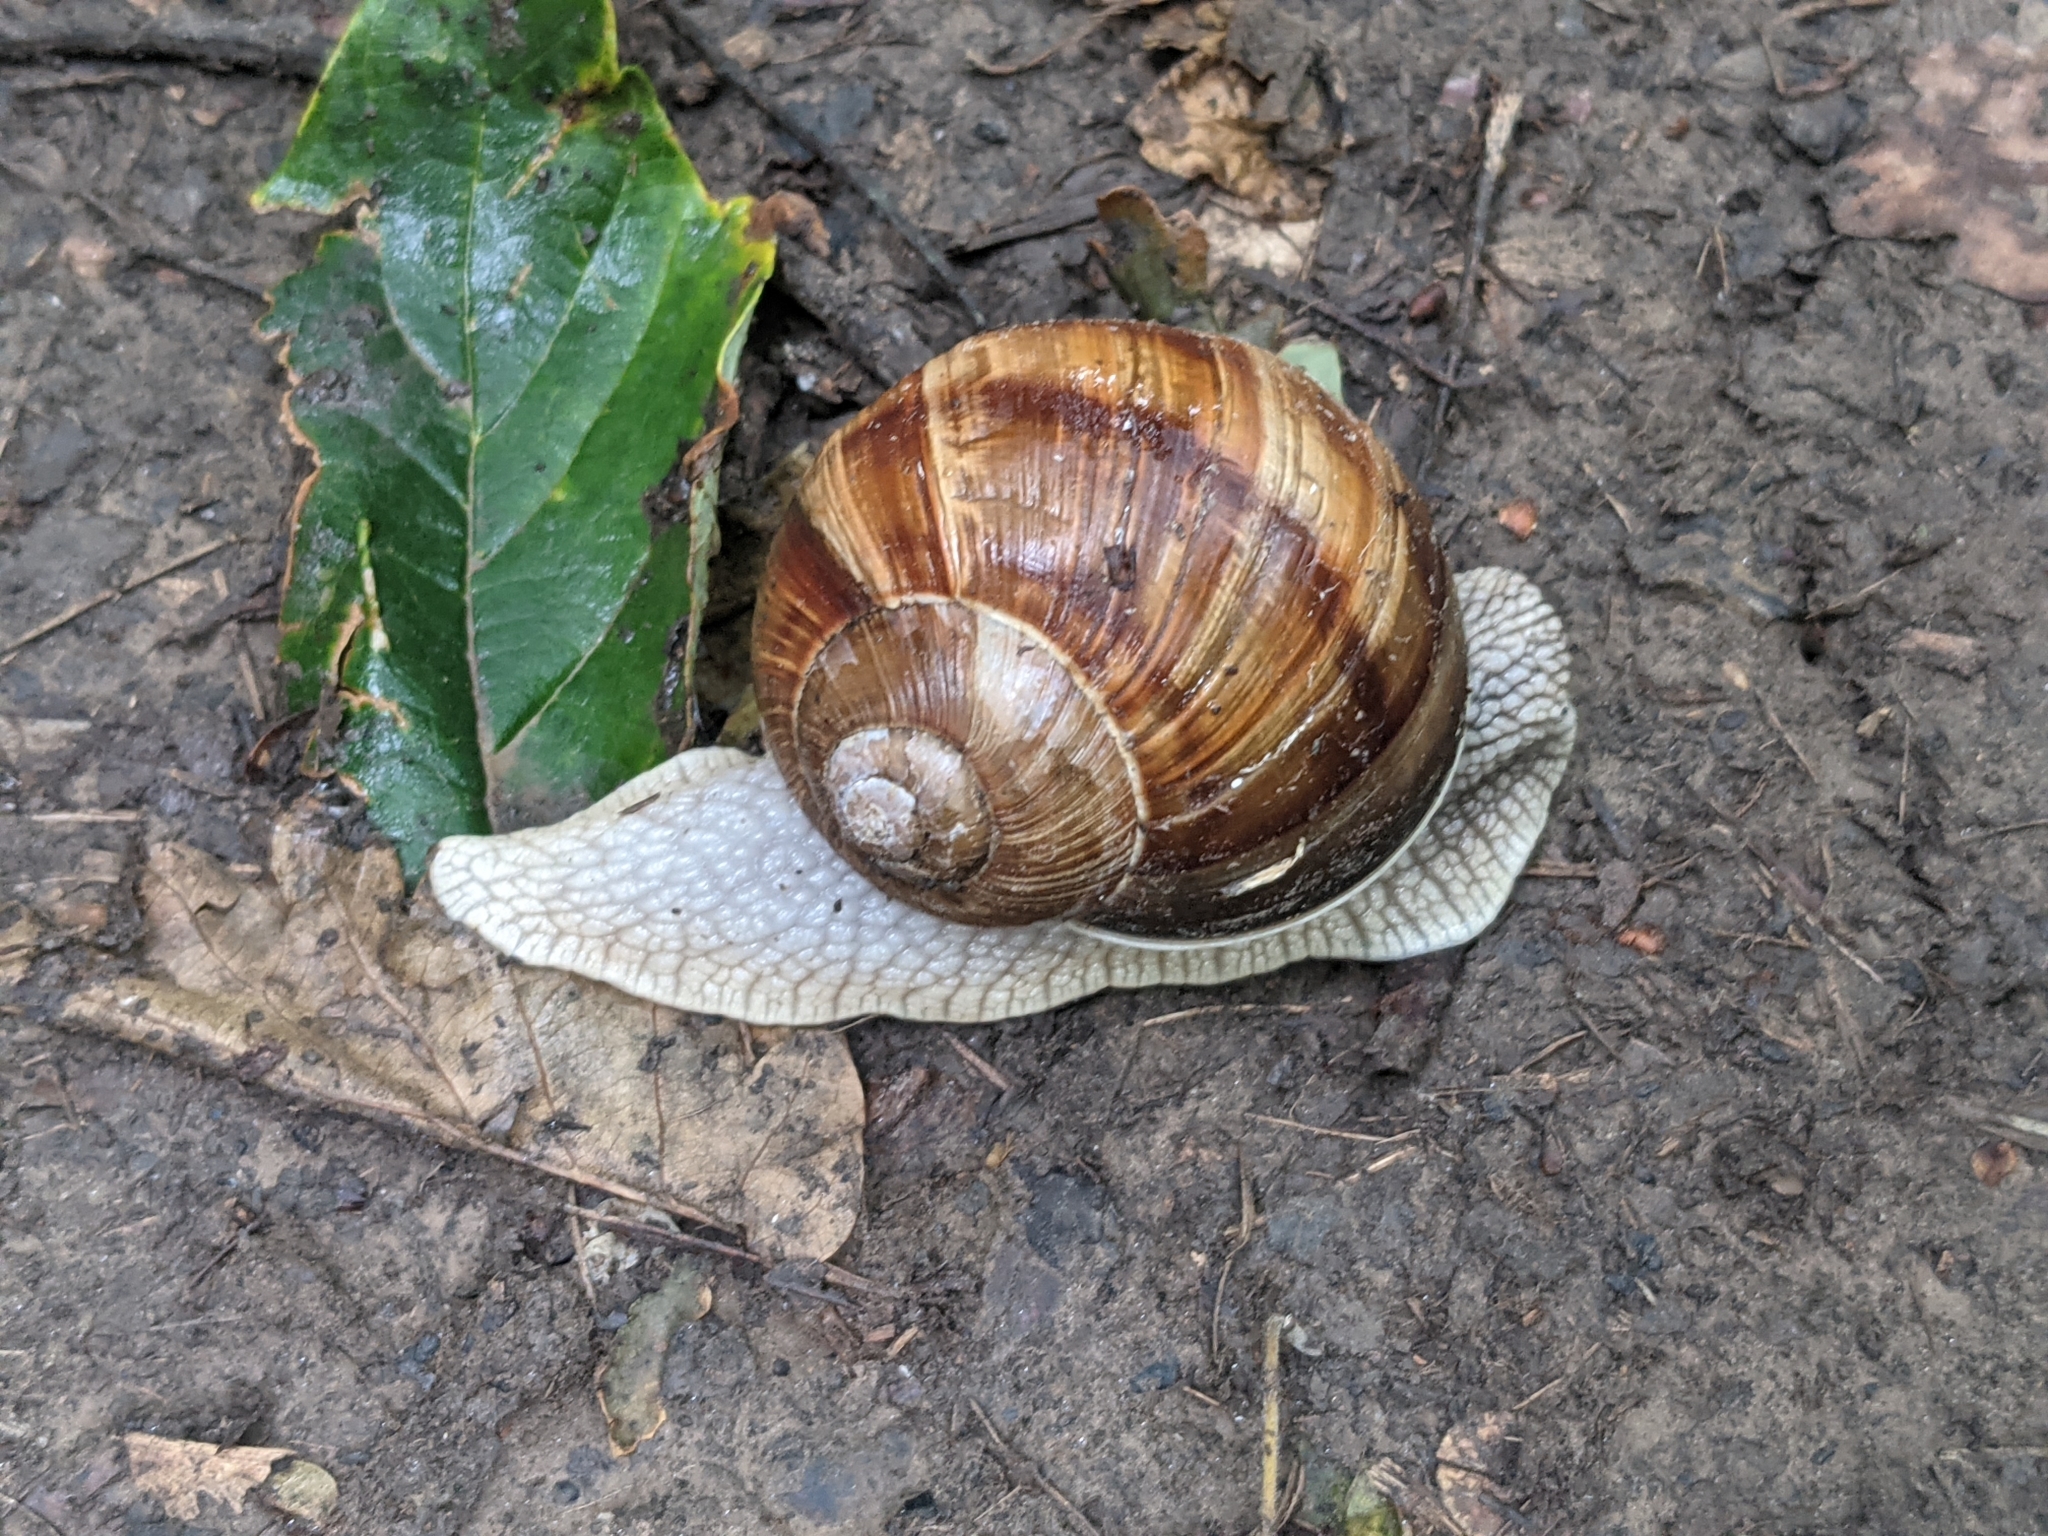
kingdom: Animalia
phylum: Mollusca
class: Gastropoda
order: Stylommatophora
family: Helicidae
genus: Helix
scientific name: Helix pomatia
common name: Roman snail
